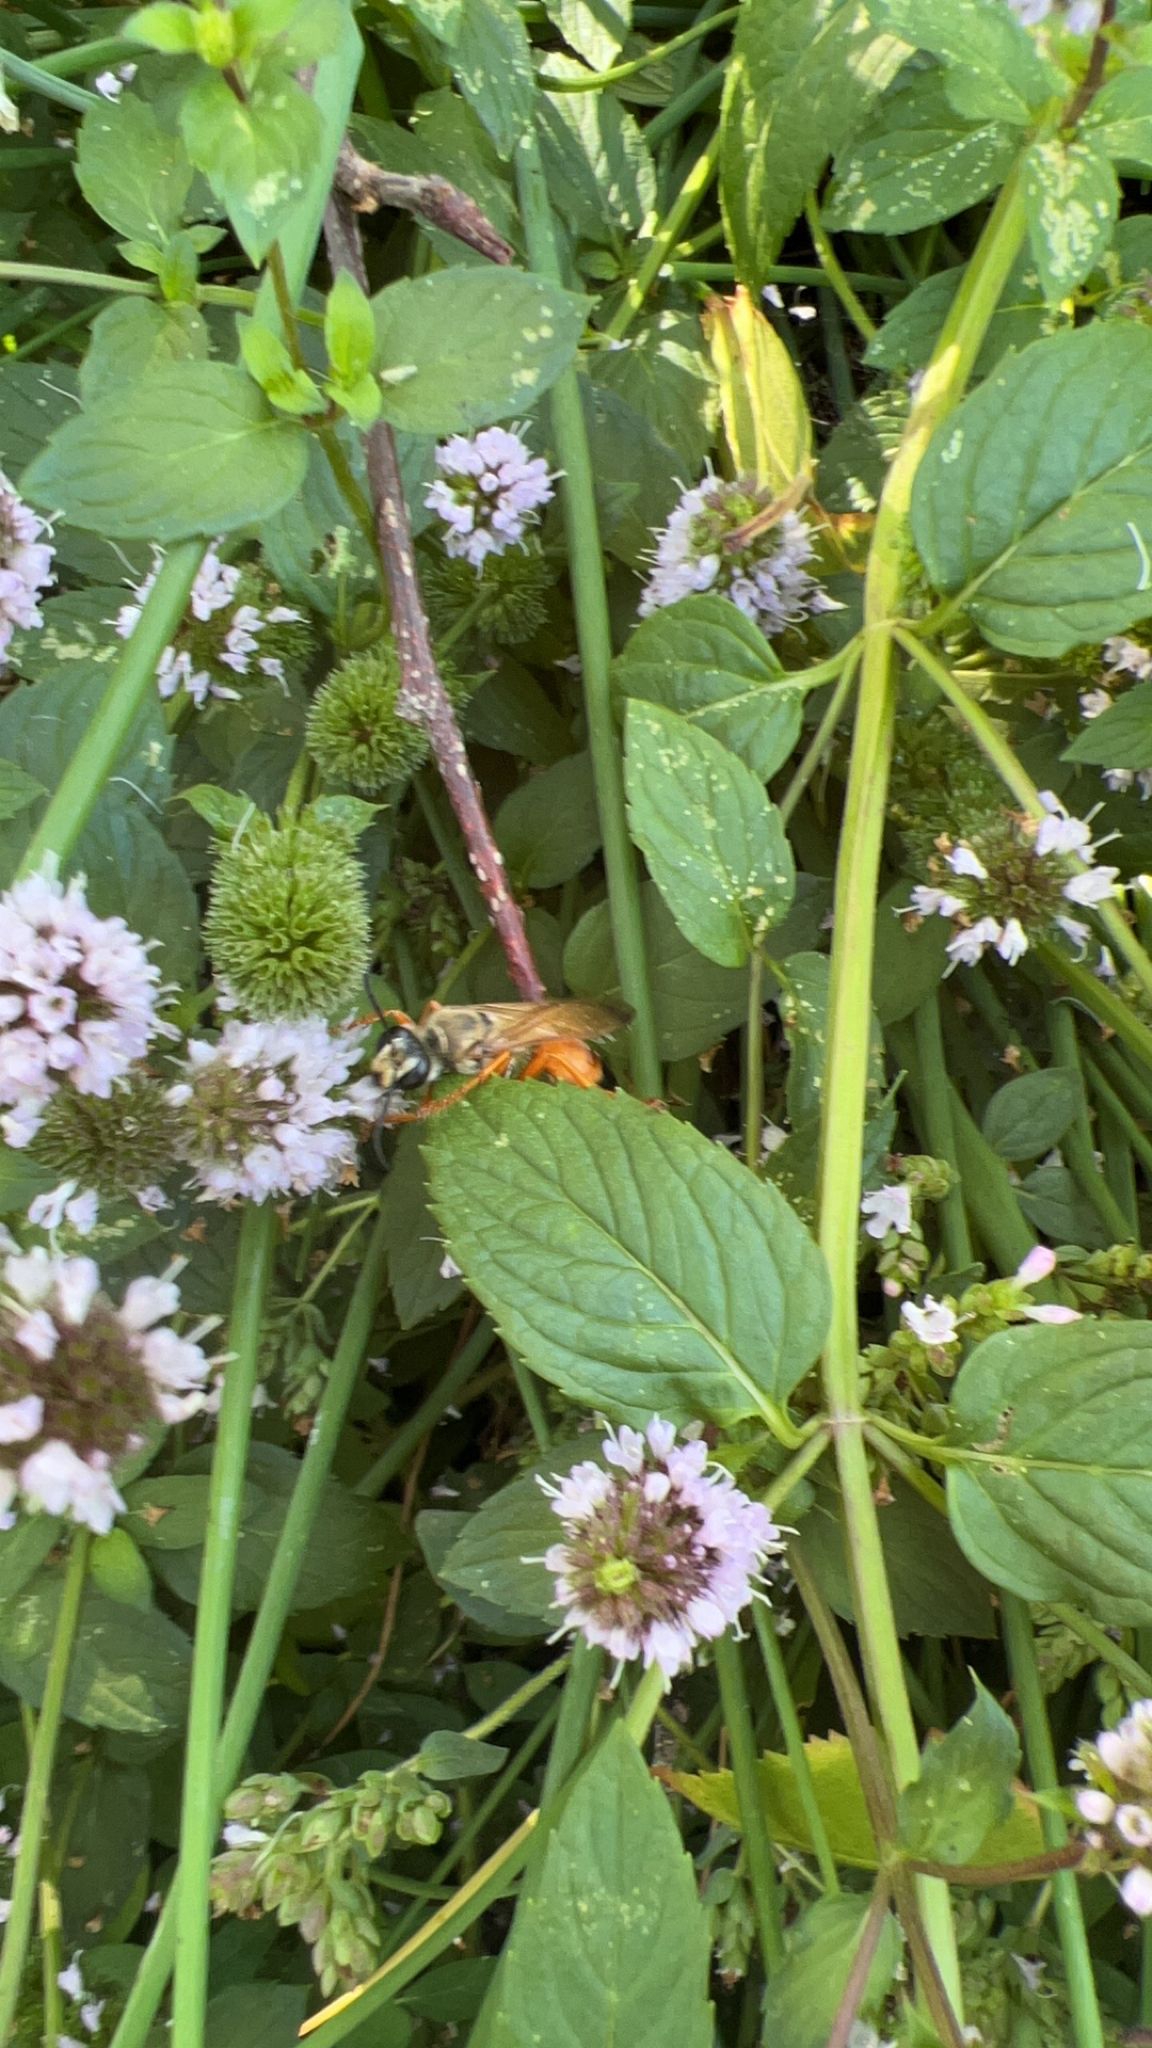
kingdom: Animalia
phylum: Arthropoda
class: Insecta
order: Hymenoptera
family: Sphecidae
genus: Sphex
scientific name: Sphex ichneumoneus
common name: Great golden digger wasp
